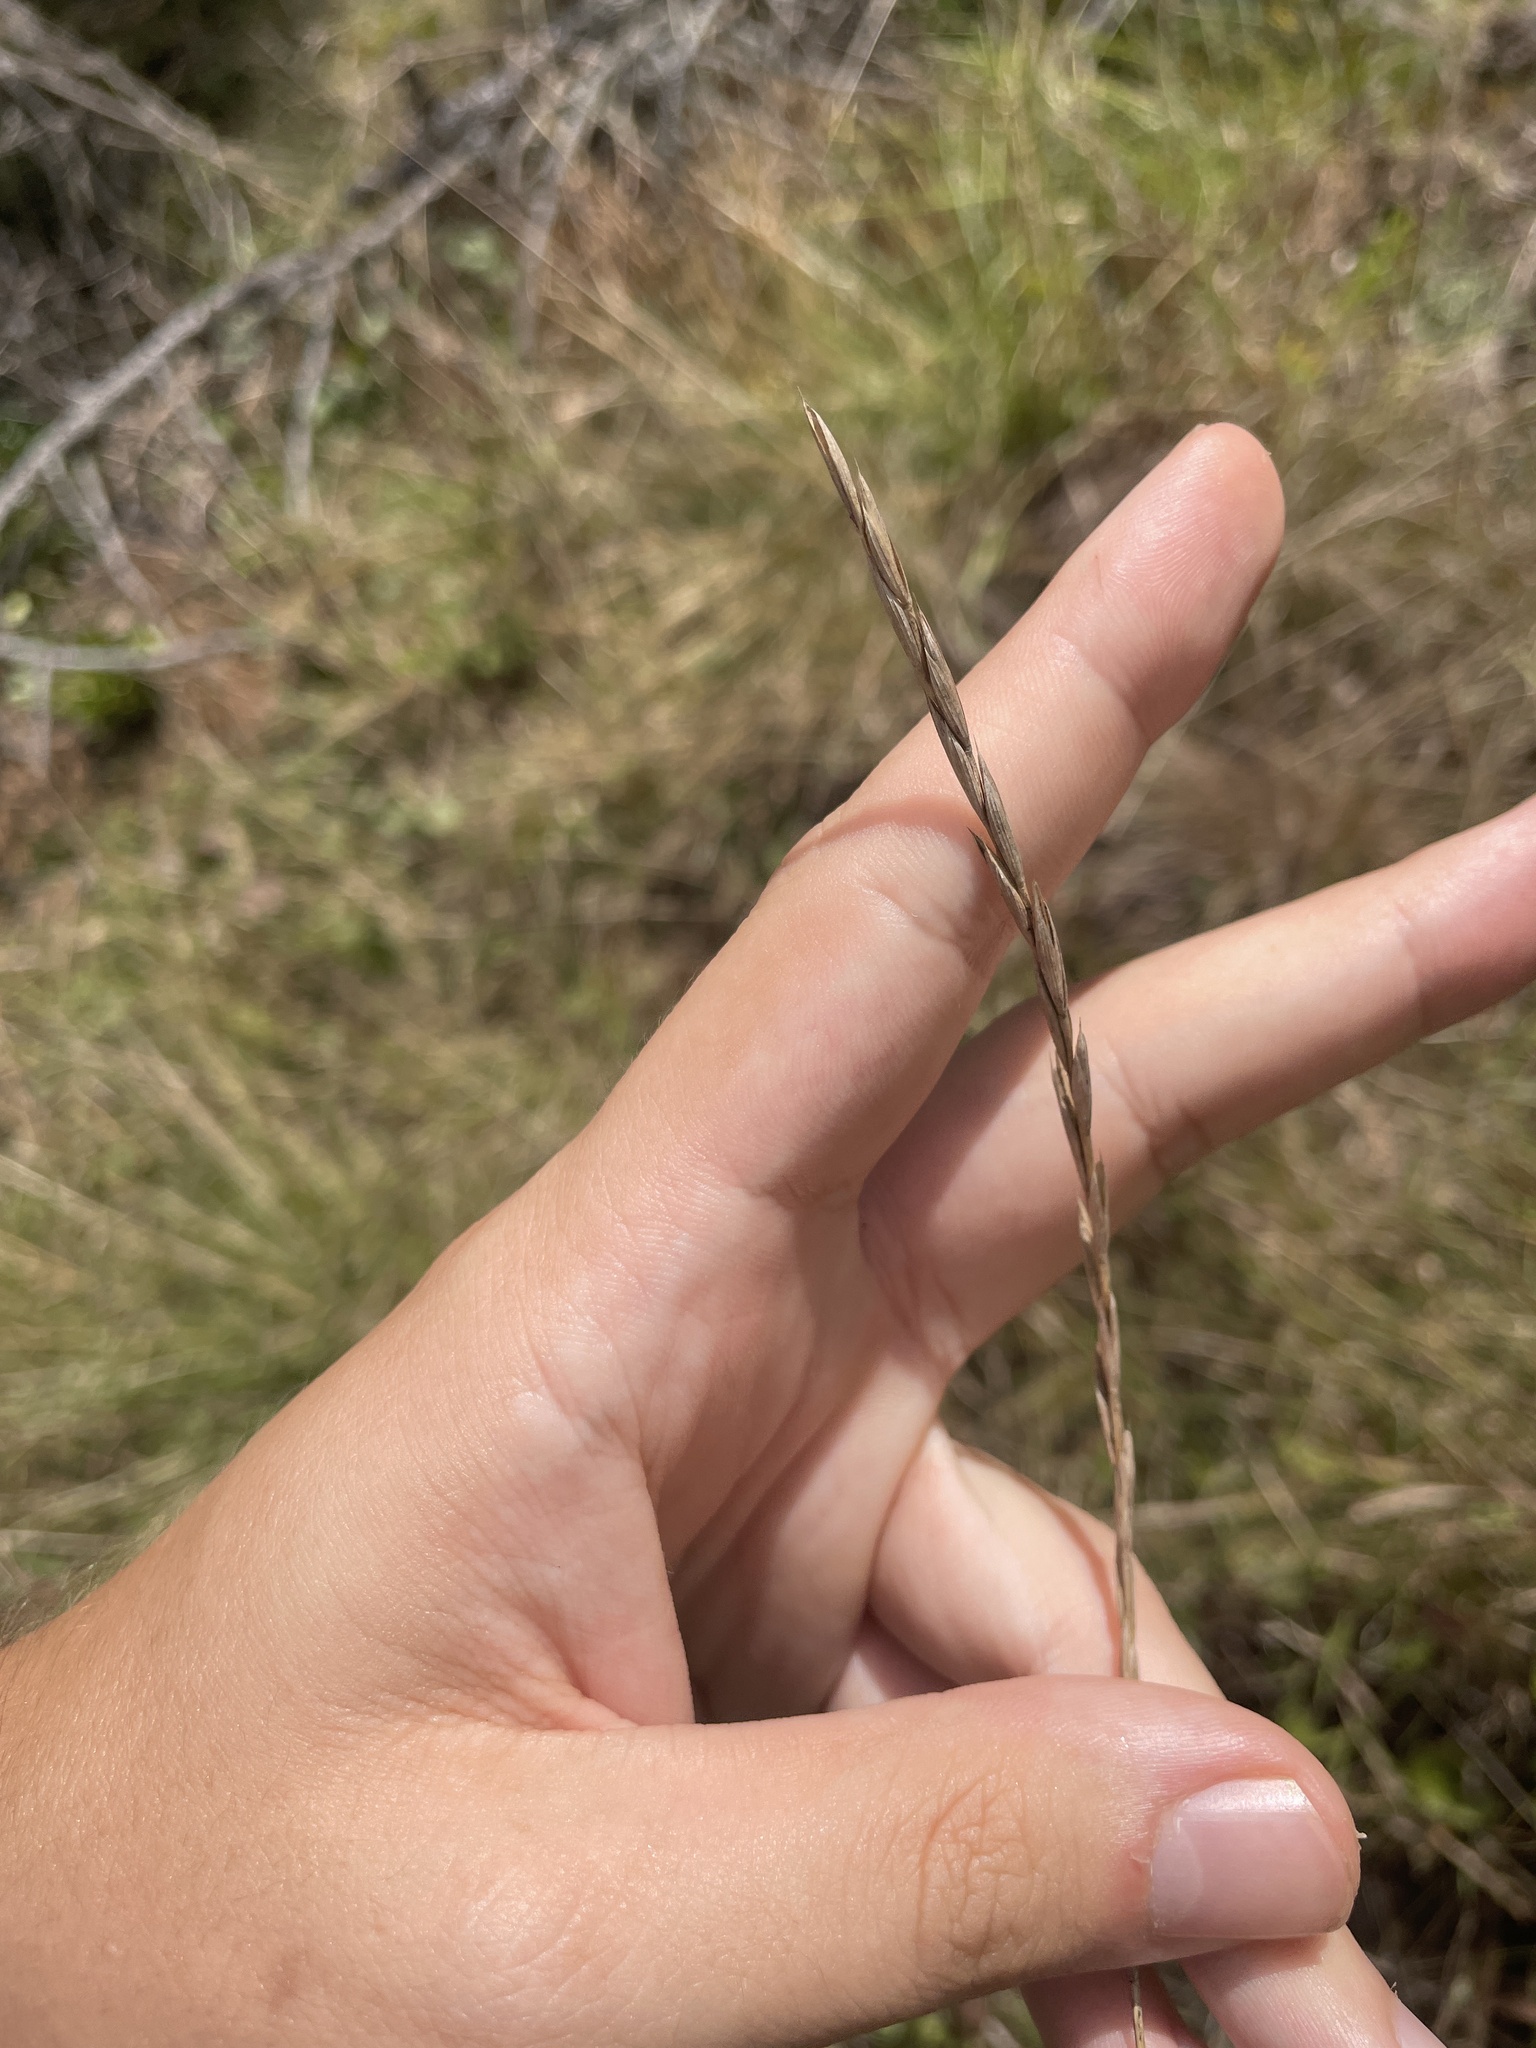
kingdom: Plantae
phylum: Tracheophyta
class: Liliopsida
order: Poales
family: Poaceae
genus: Elymus
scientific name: Elymus violaceus
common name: Arctic wheatgrass
